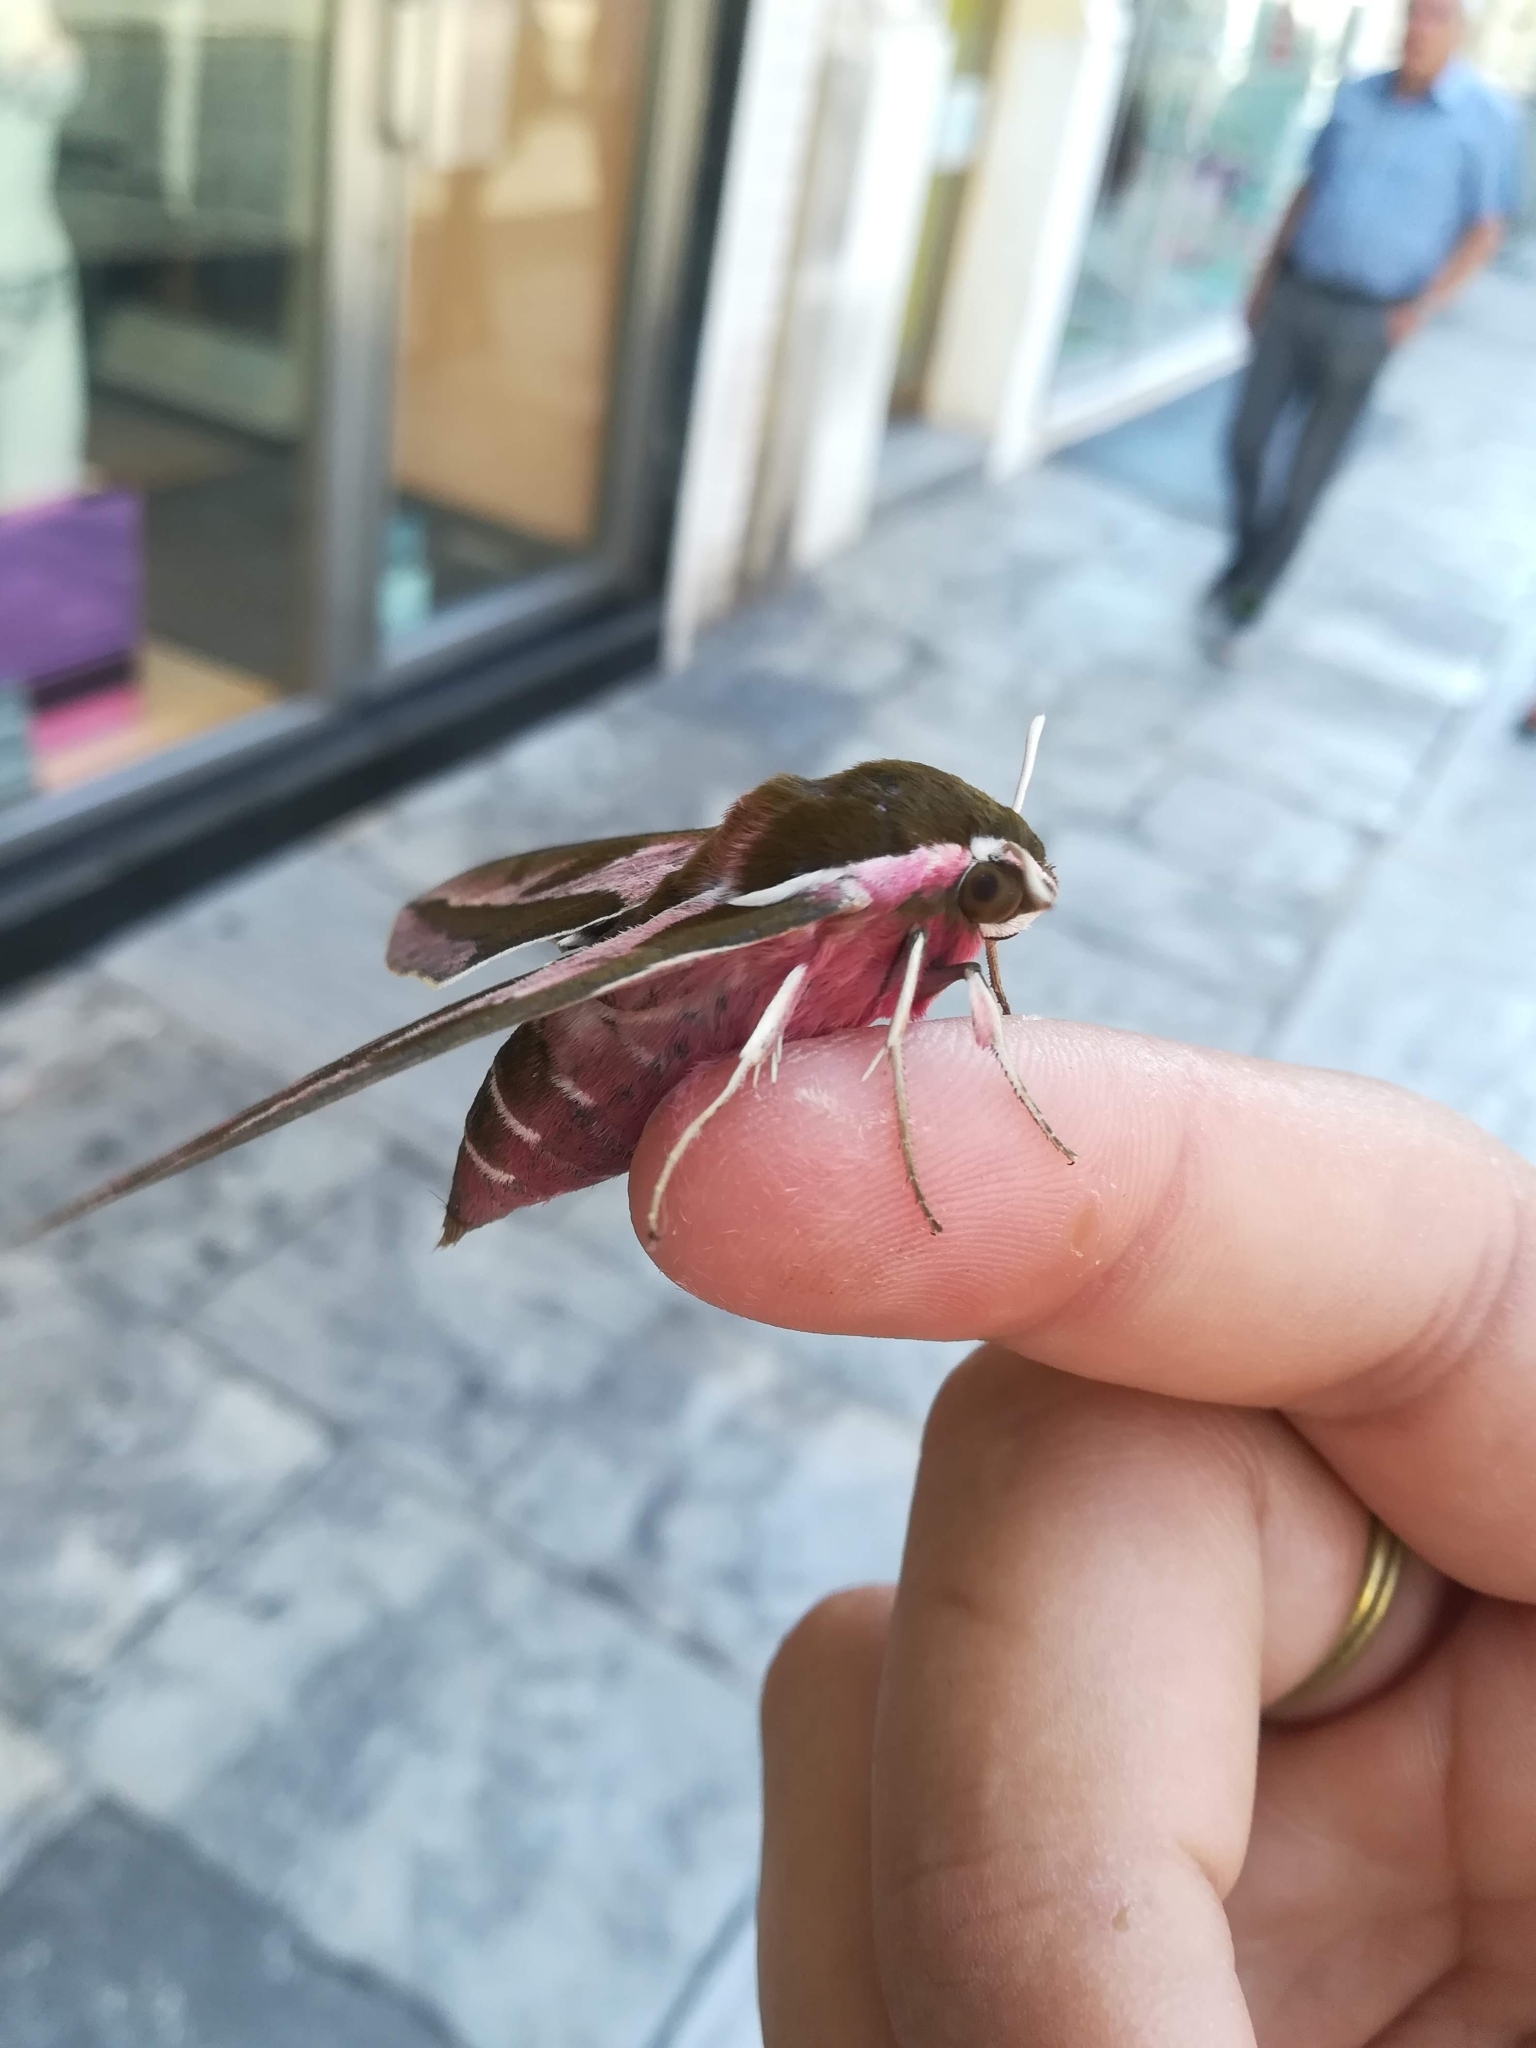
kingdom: Animalia
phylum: Arthropoda
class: Insecta
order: Lepidoptera
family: Sphingidae
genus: Hyles
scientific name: Hyles euphorbiae
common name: Spurge hawk-moth
